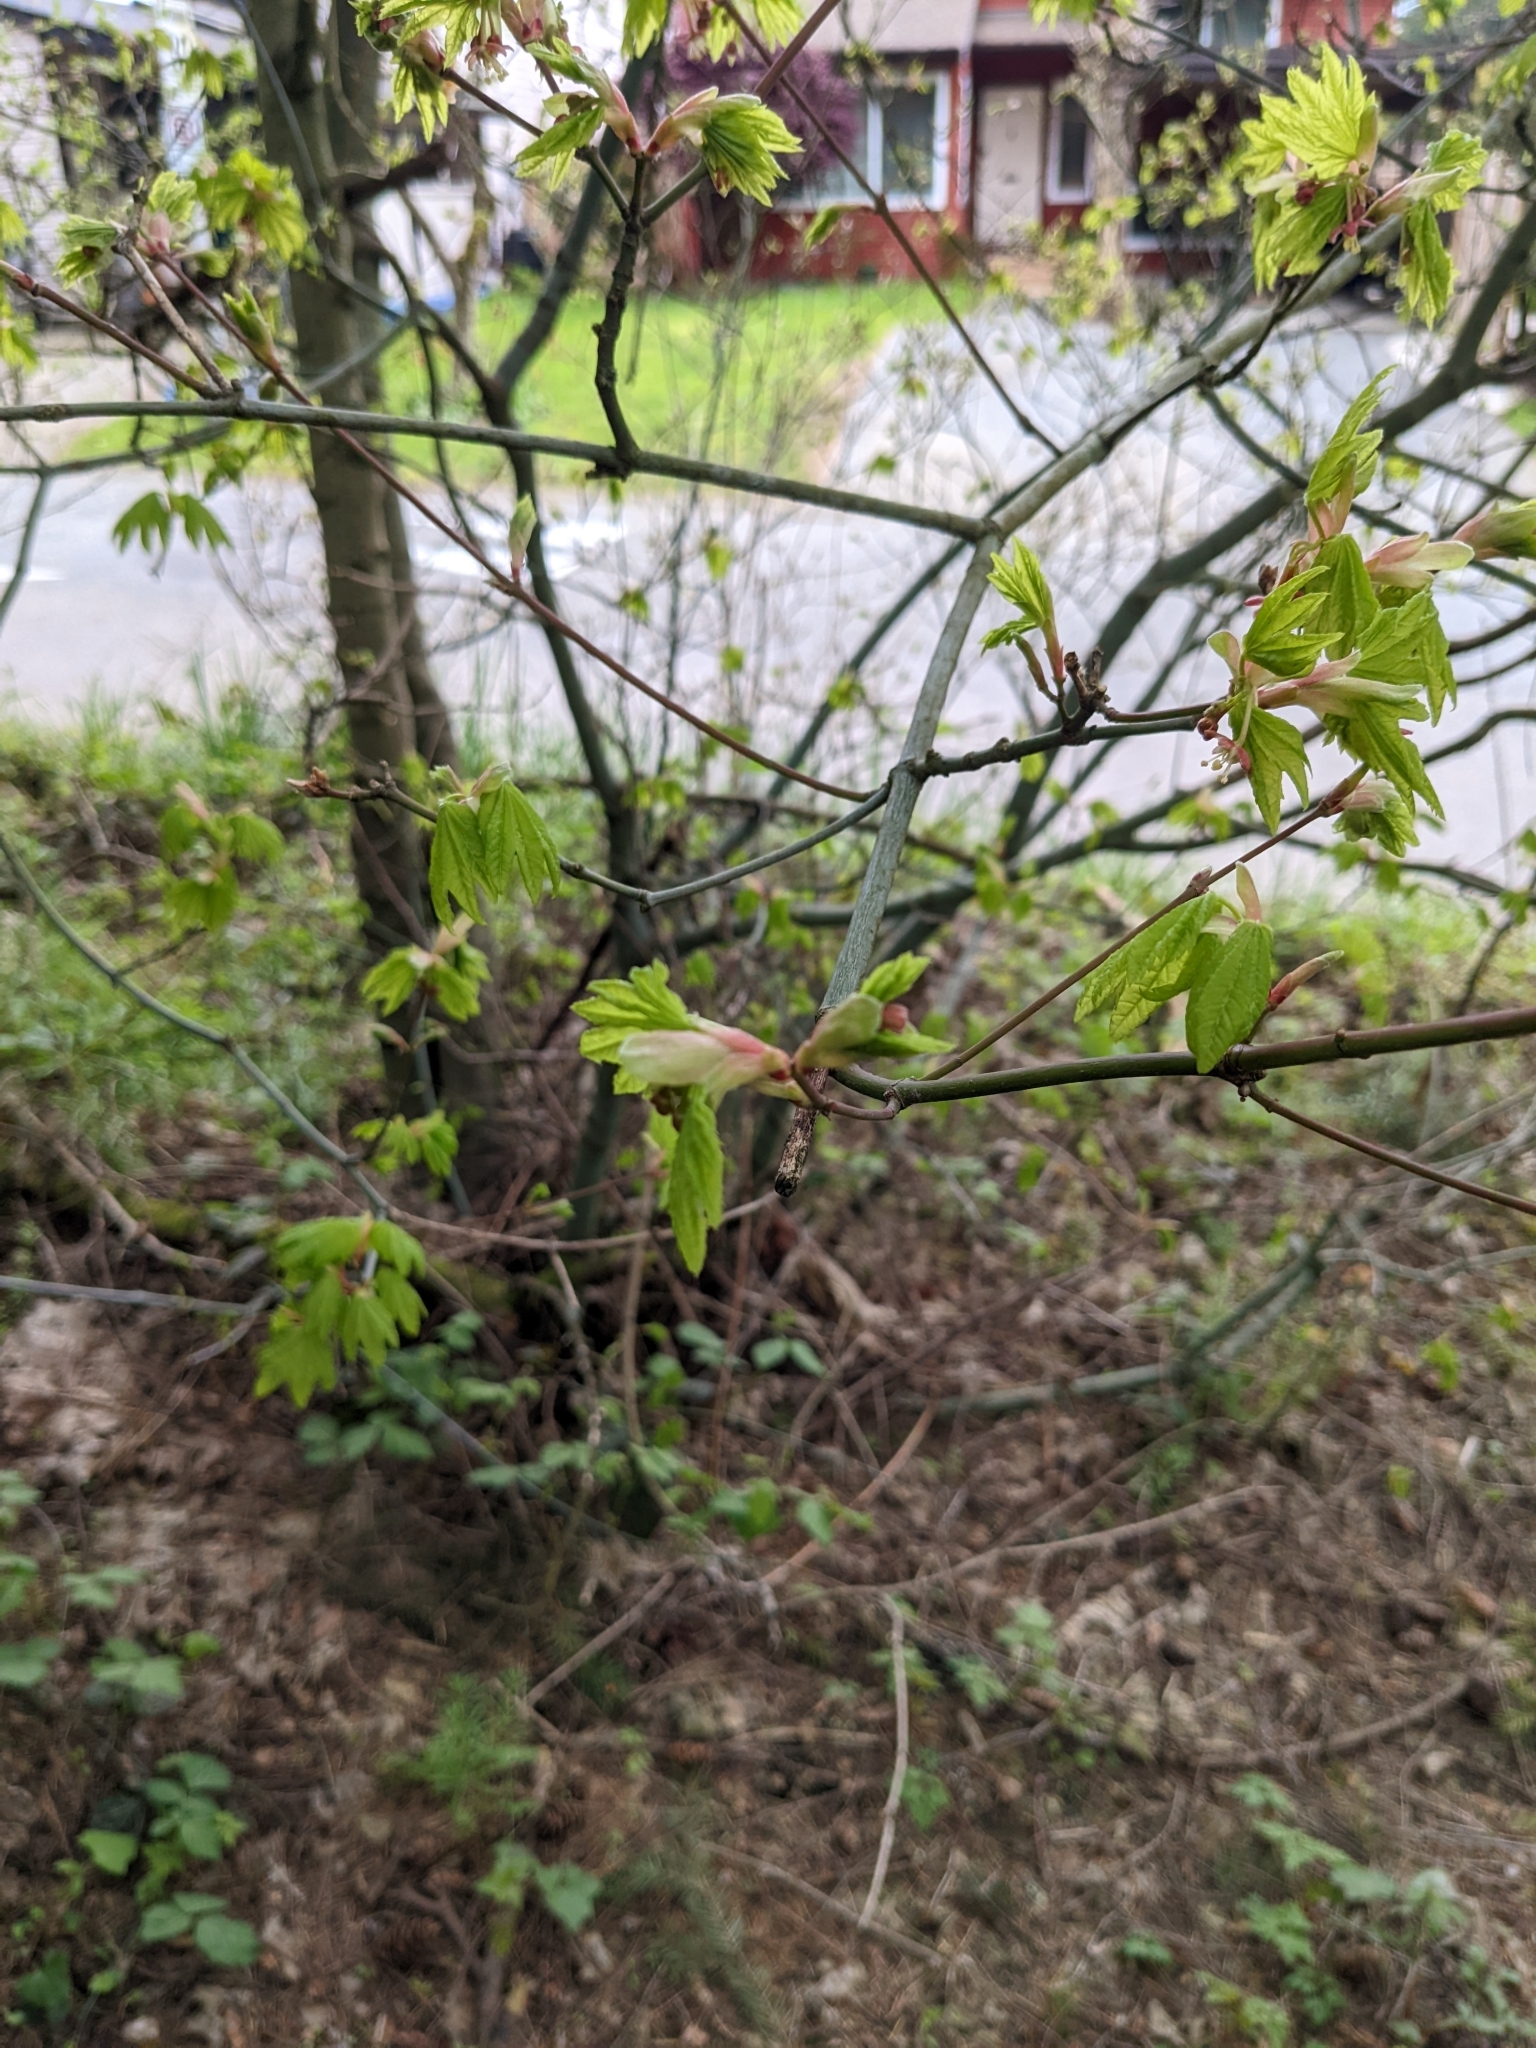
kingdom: Plantae
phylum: Tracheophyta
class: Magnoliopsida
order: Sapindales
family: Sapindaceae
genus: Acer
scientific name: Acer circinatum
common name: Vine maple
